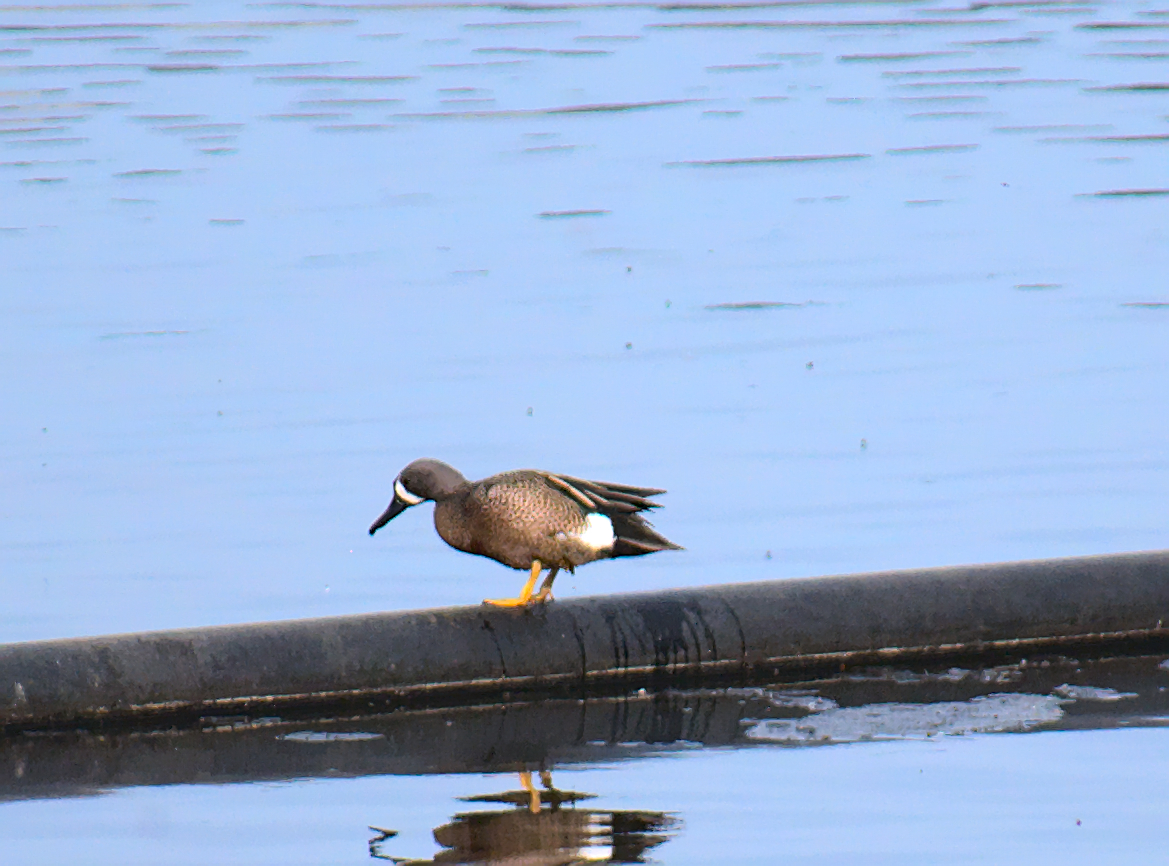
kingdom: Animalia
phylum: Chordata
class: Aves
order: Anseriformes
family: Anatidae
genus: Spatula
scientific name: Spatula discors
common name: Blue-winged teal
